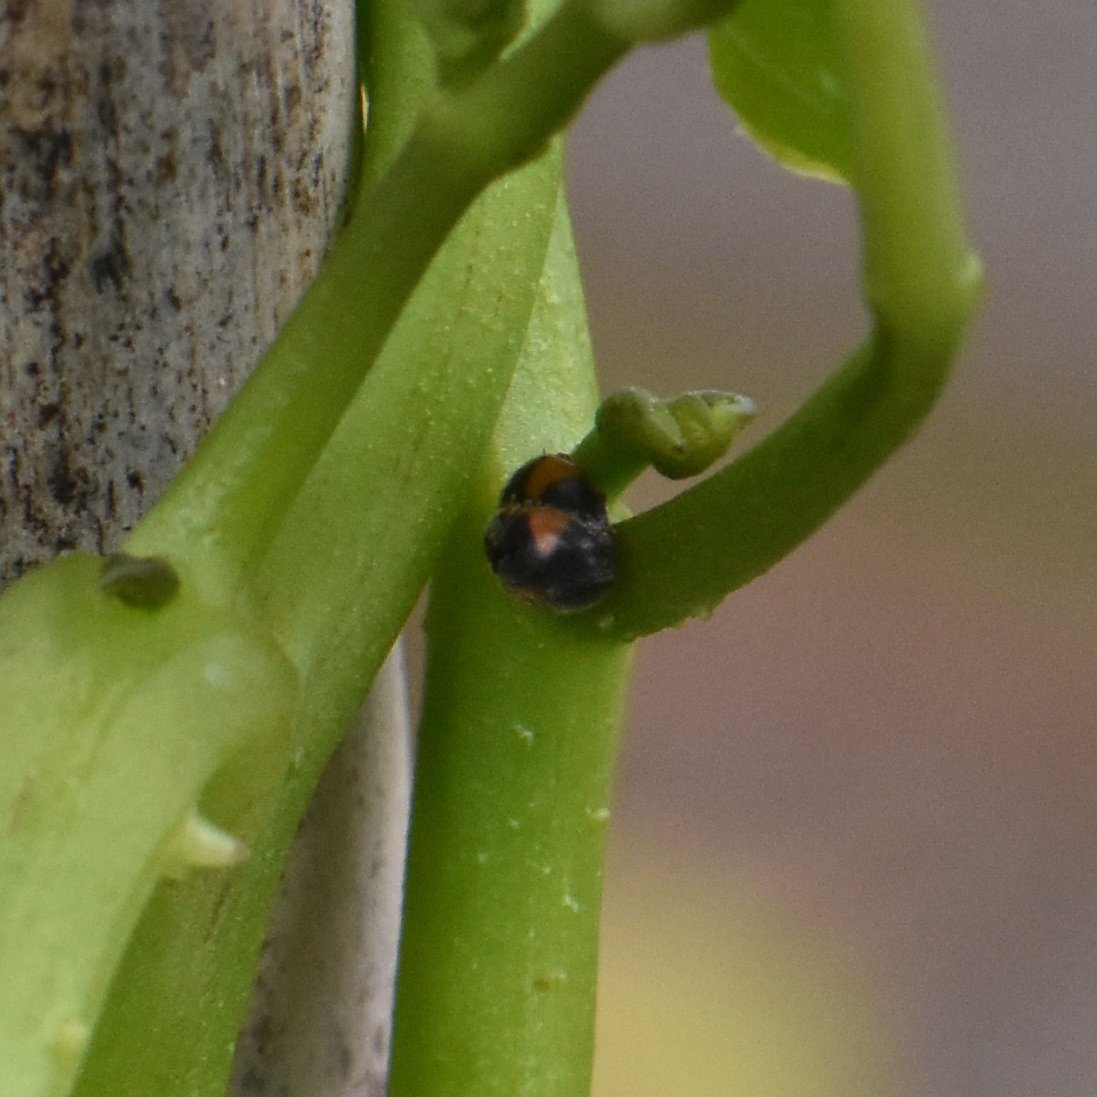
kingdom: Animalia
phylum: Arthropoda
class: Insecta
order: Coleoptera
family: Coccinellidae
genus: Scymnus
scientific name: Scymnus interruptus
